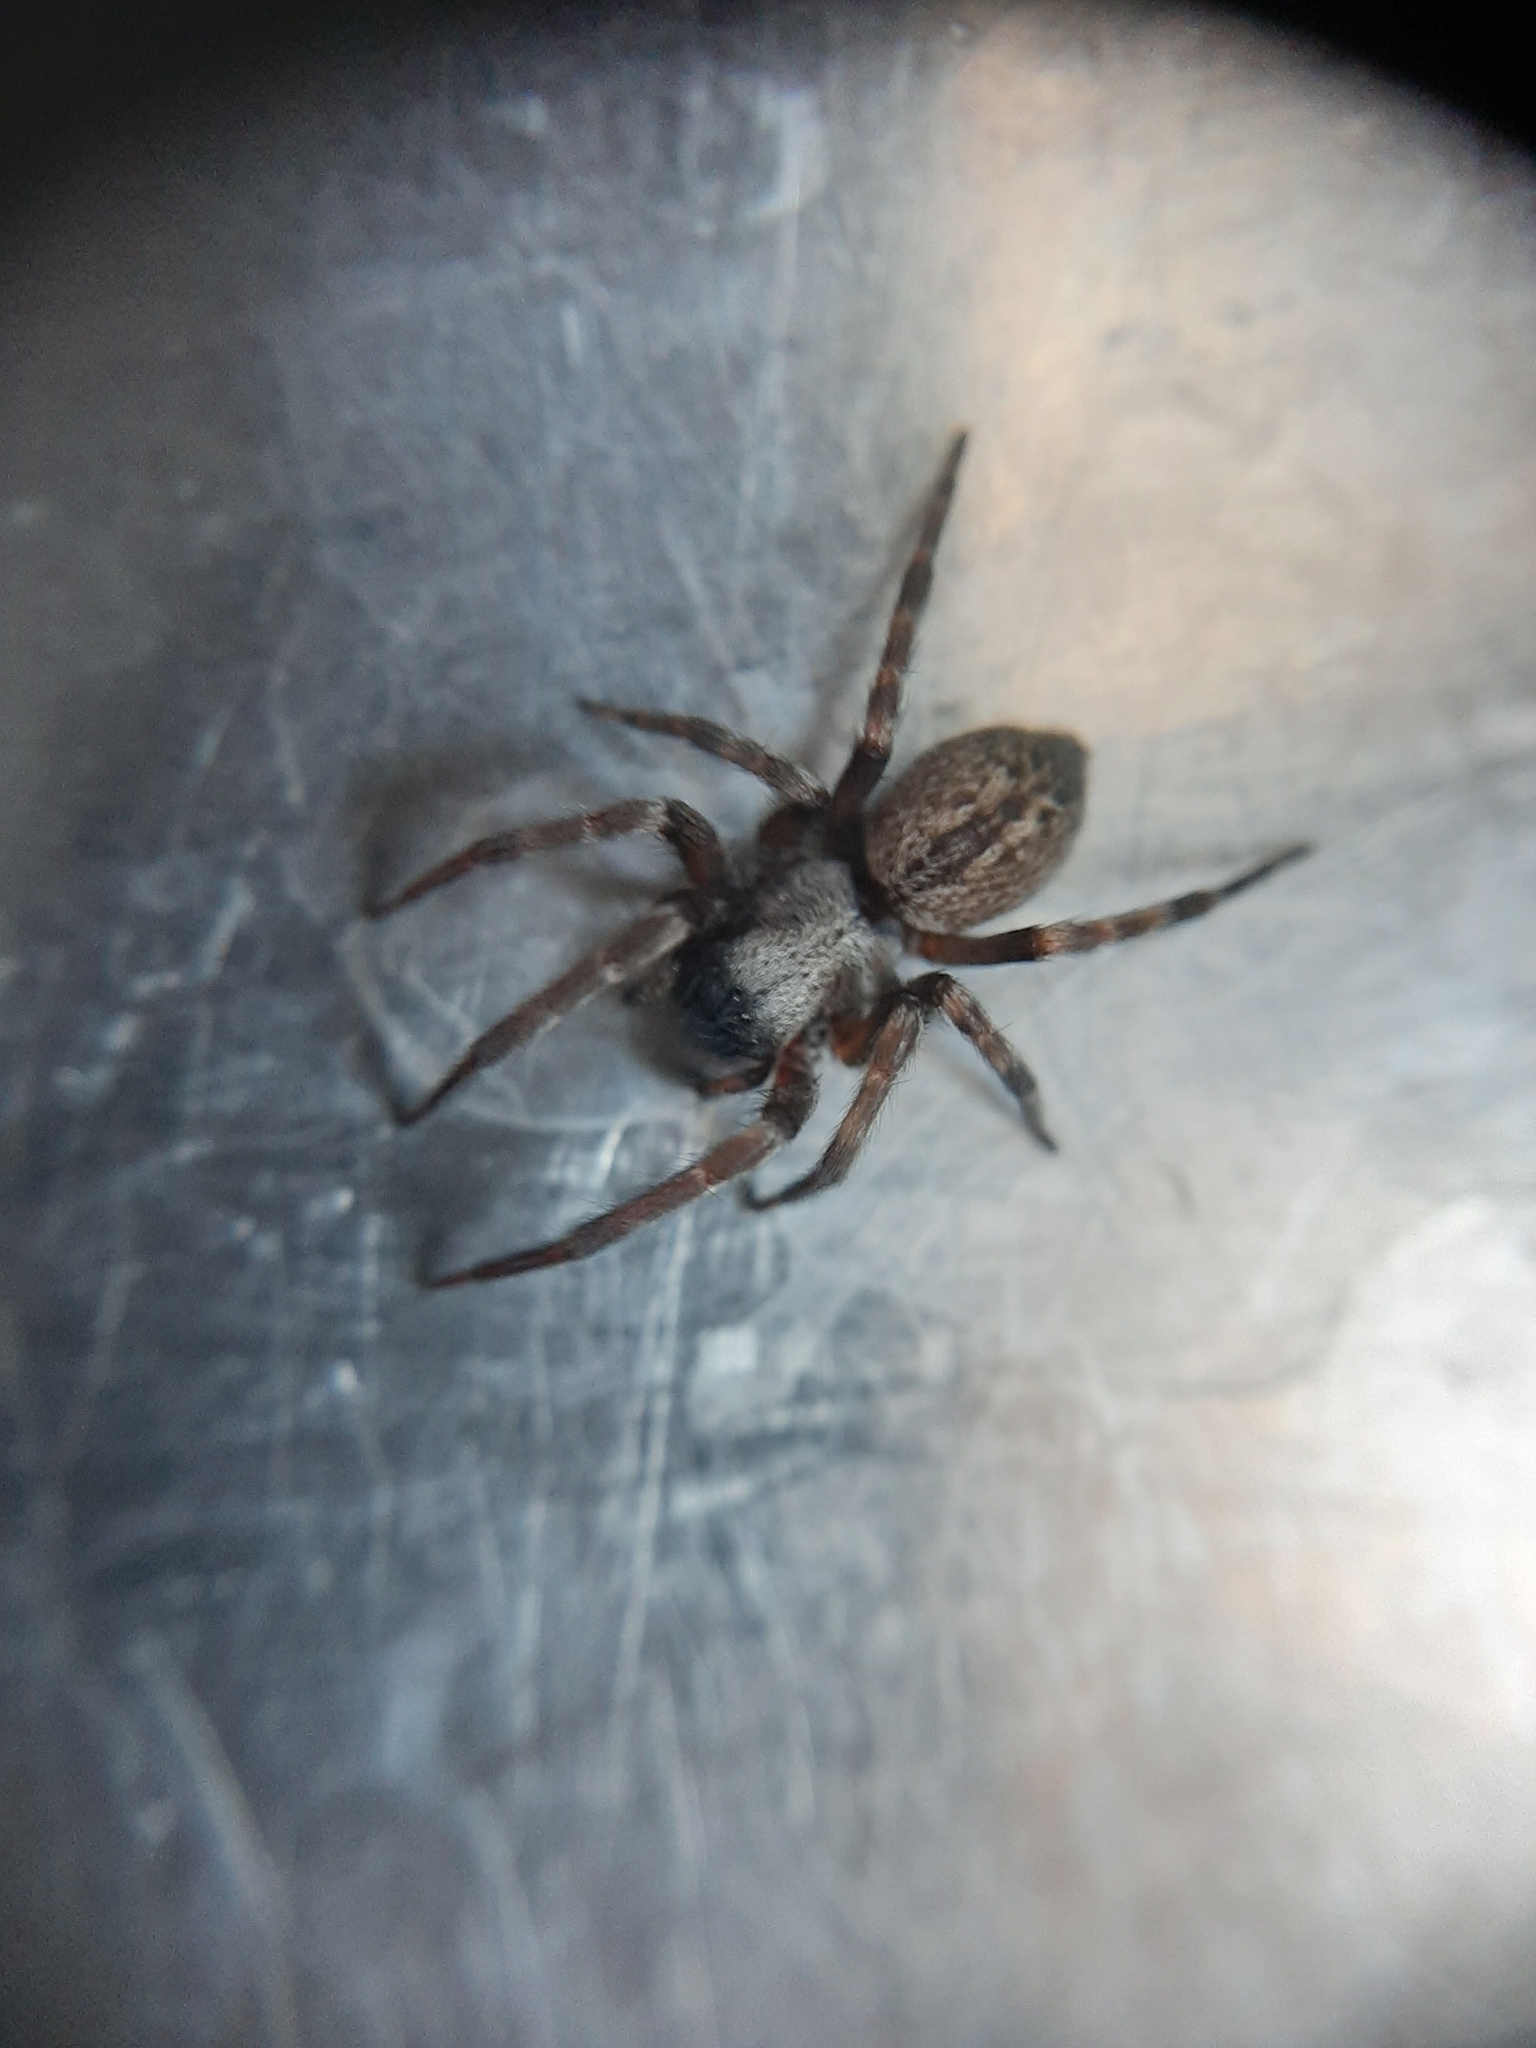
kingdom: Animalia
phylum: Arthropoda
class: Arachnida
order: Araneae
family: Desidae
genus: Badumna
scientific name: Badumna longinqua
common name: Gray house spider
